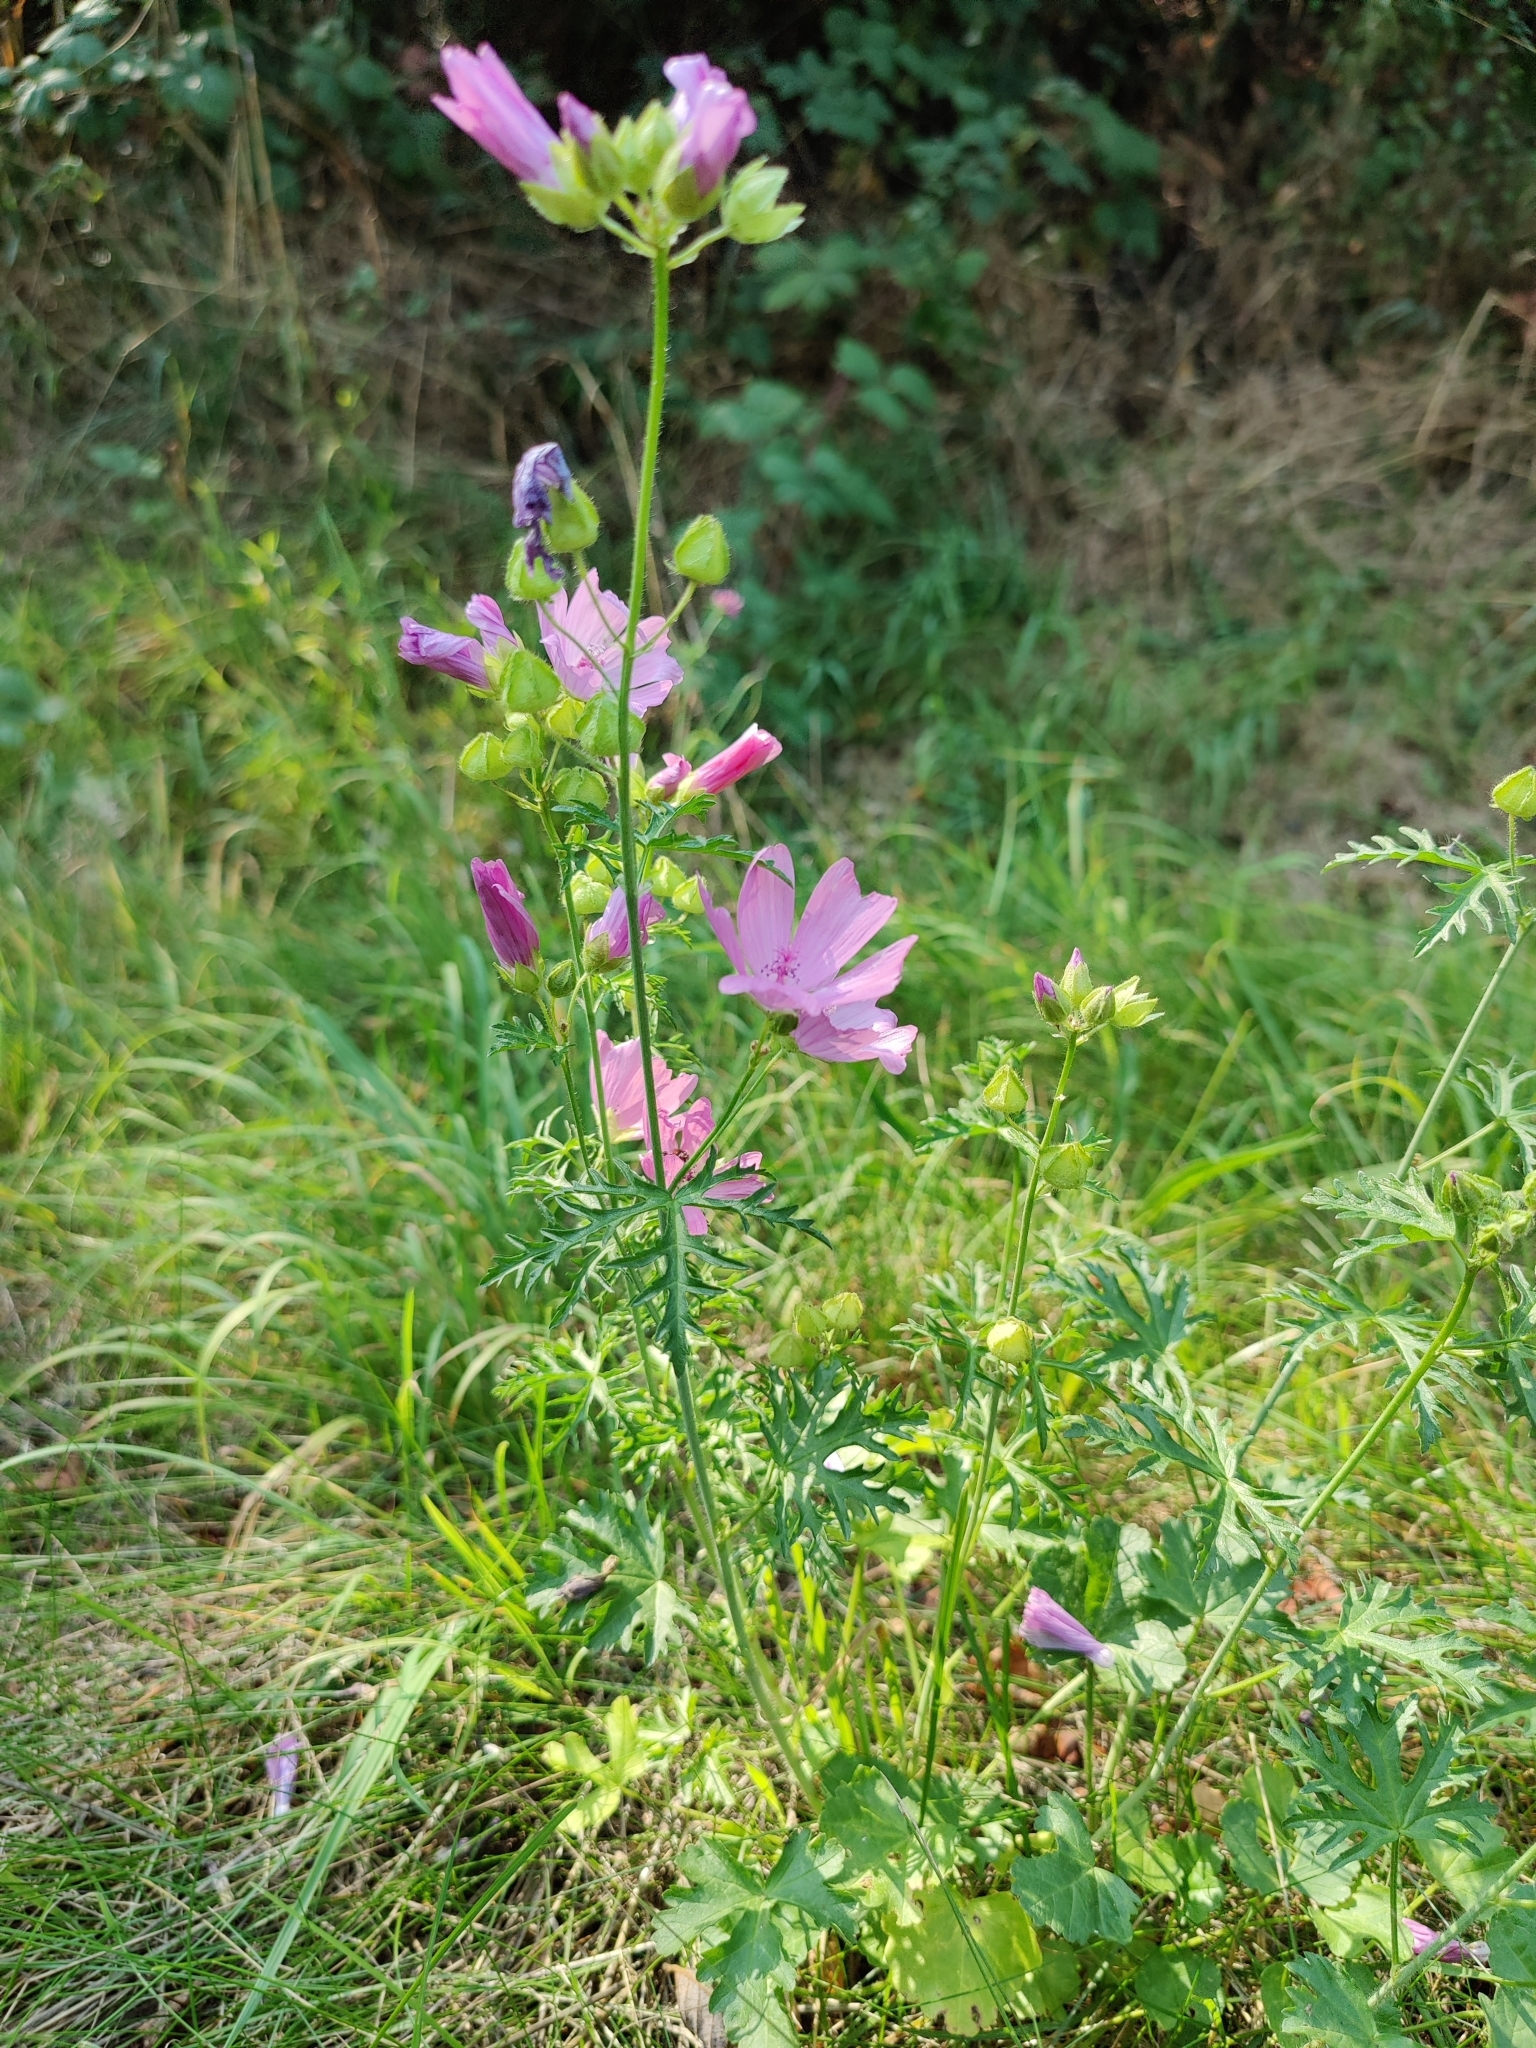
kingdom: Plantae
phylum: Tracheophyta
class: Magnoliopsida
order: Malvales
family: Malvaceae
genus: Malva
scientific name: Malva moschata
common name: Musk mallow
